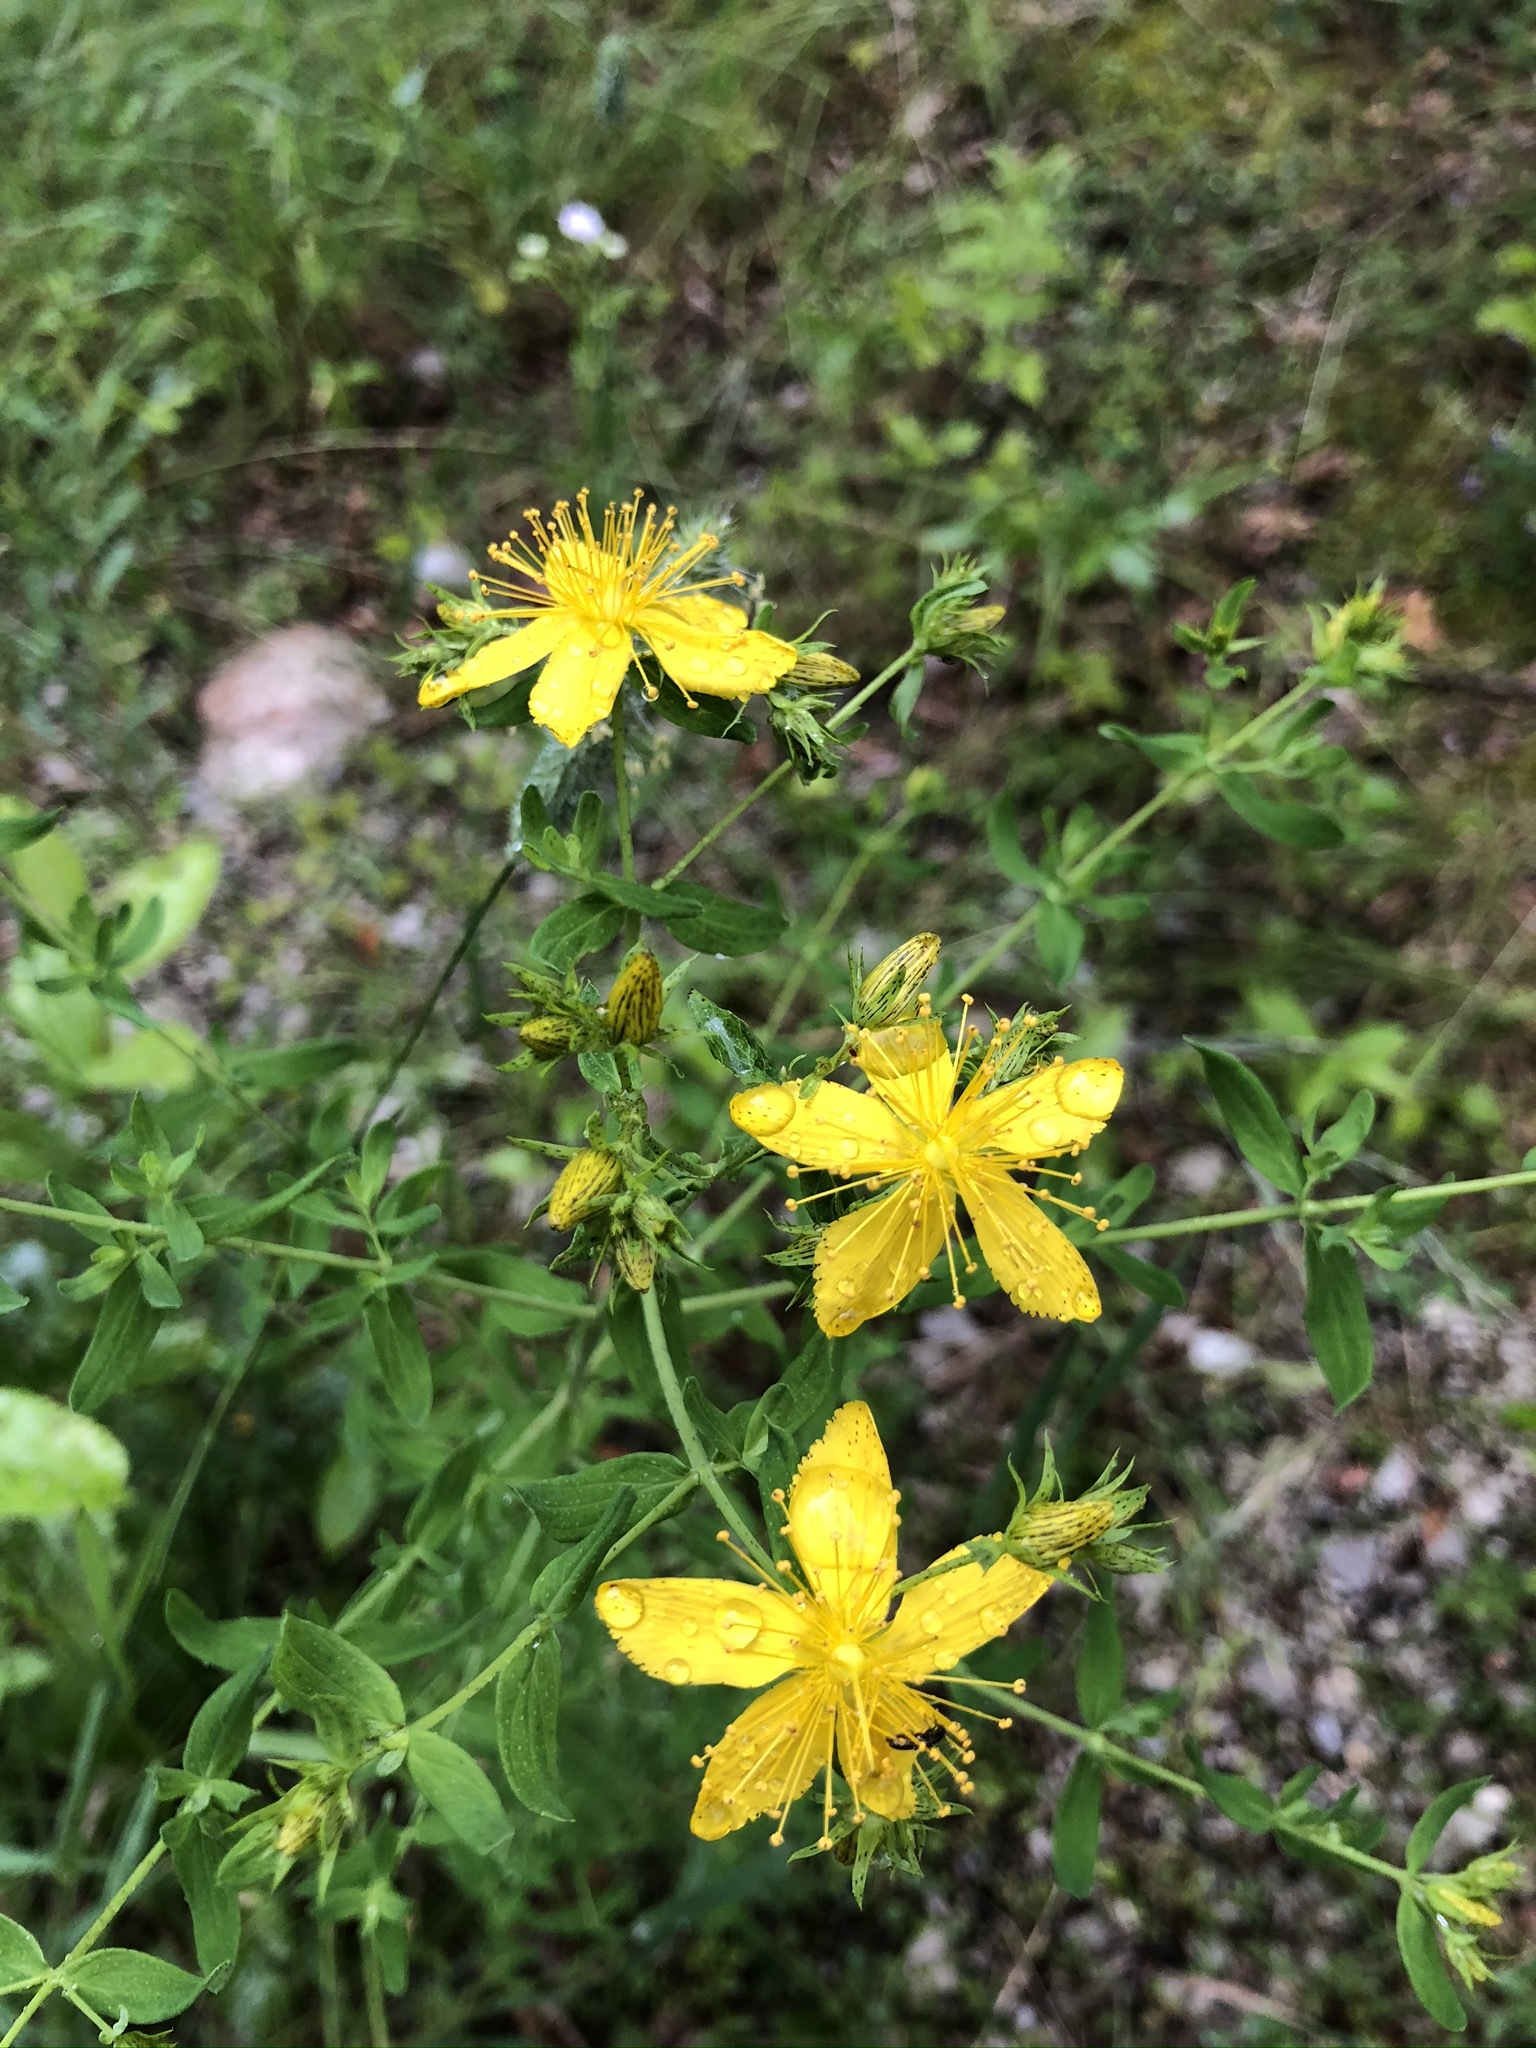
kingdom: Plantae
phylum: Tracheophyta
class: Magnoliopsida
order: Malpighiales
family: Hypericaceae
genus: Hypericum
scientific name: Hypericum desetangsii
